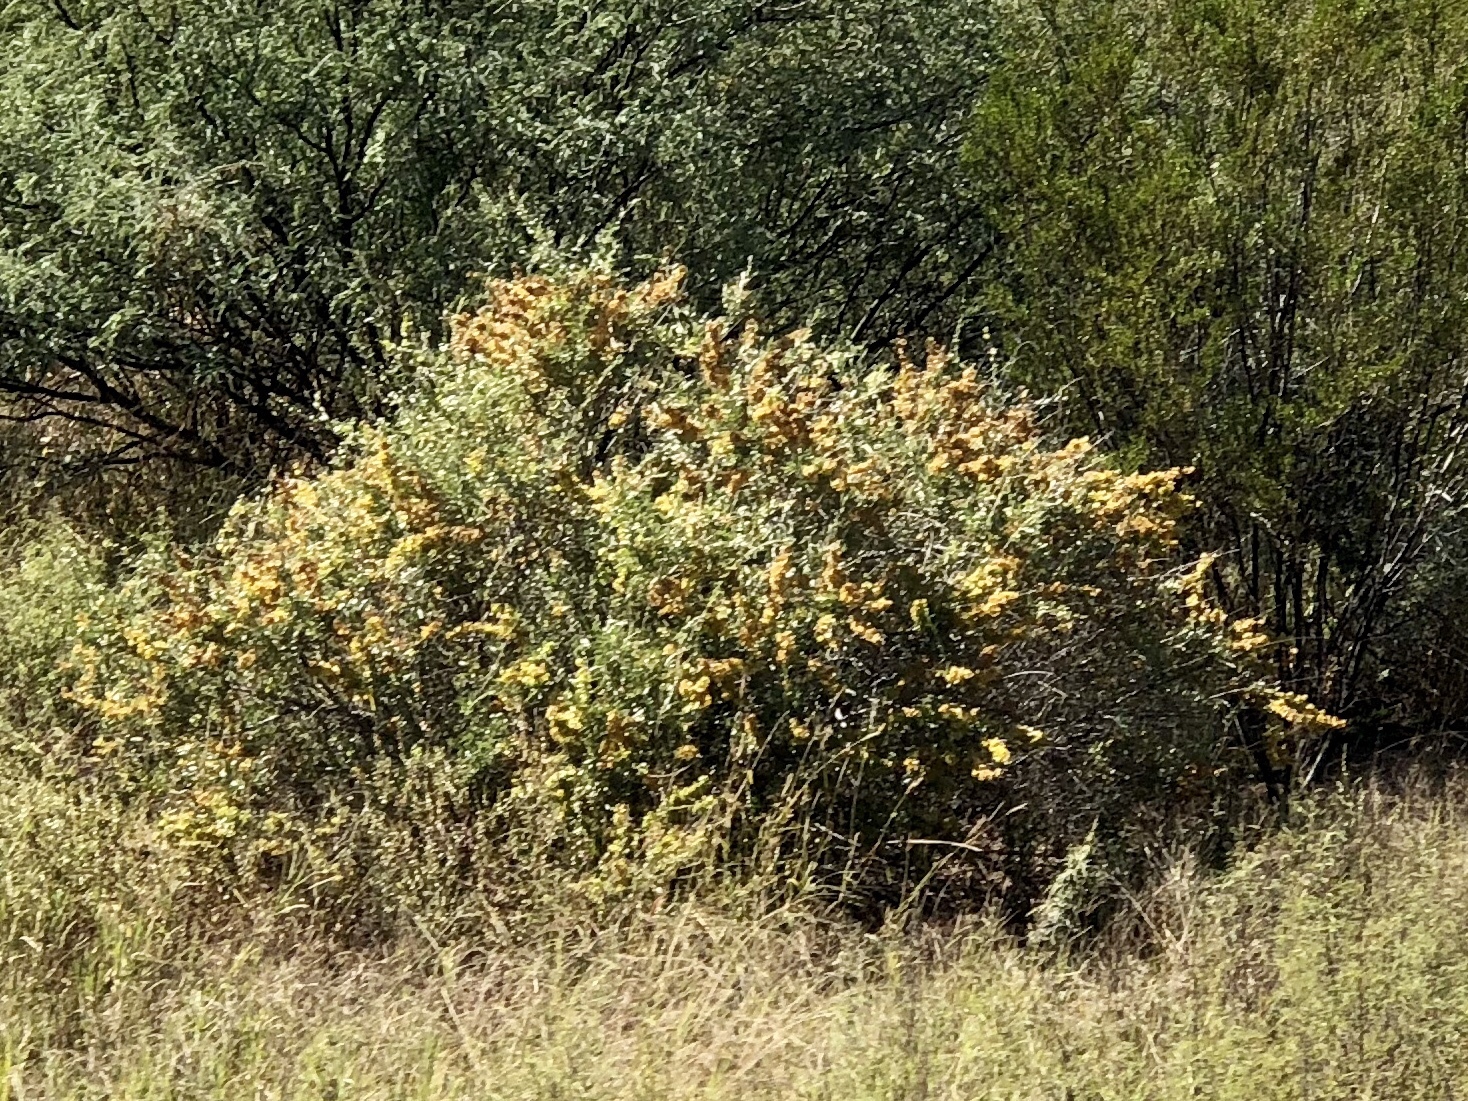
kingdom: Plantae
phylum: Tracheophyta
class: Magnoliopsida
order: Caryophyllales
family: Amaranthaceae
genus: Atriplex
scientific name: Atriplex canescens
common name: Four-wing saltbush
